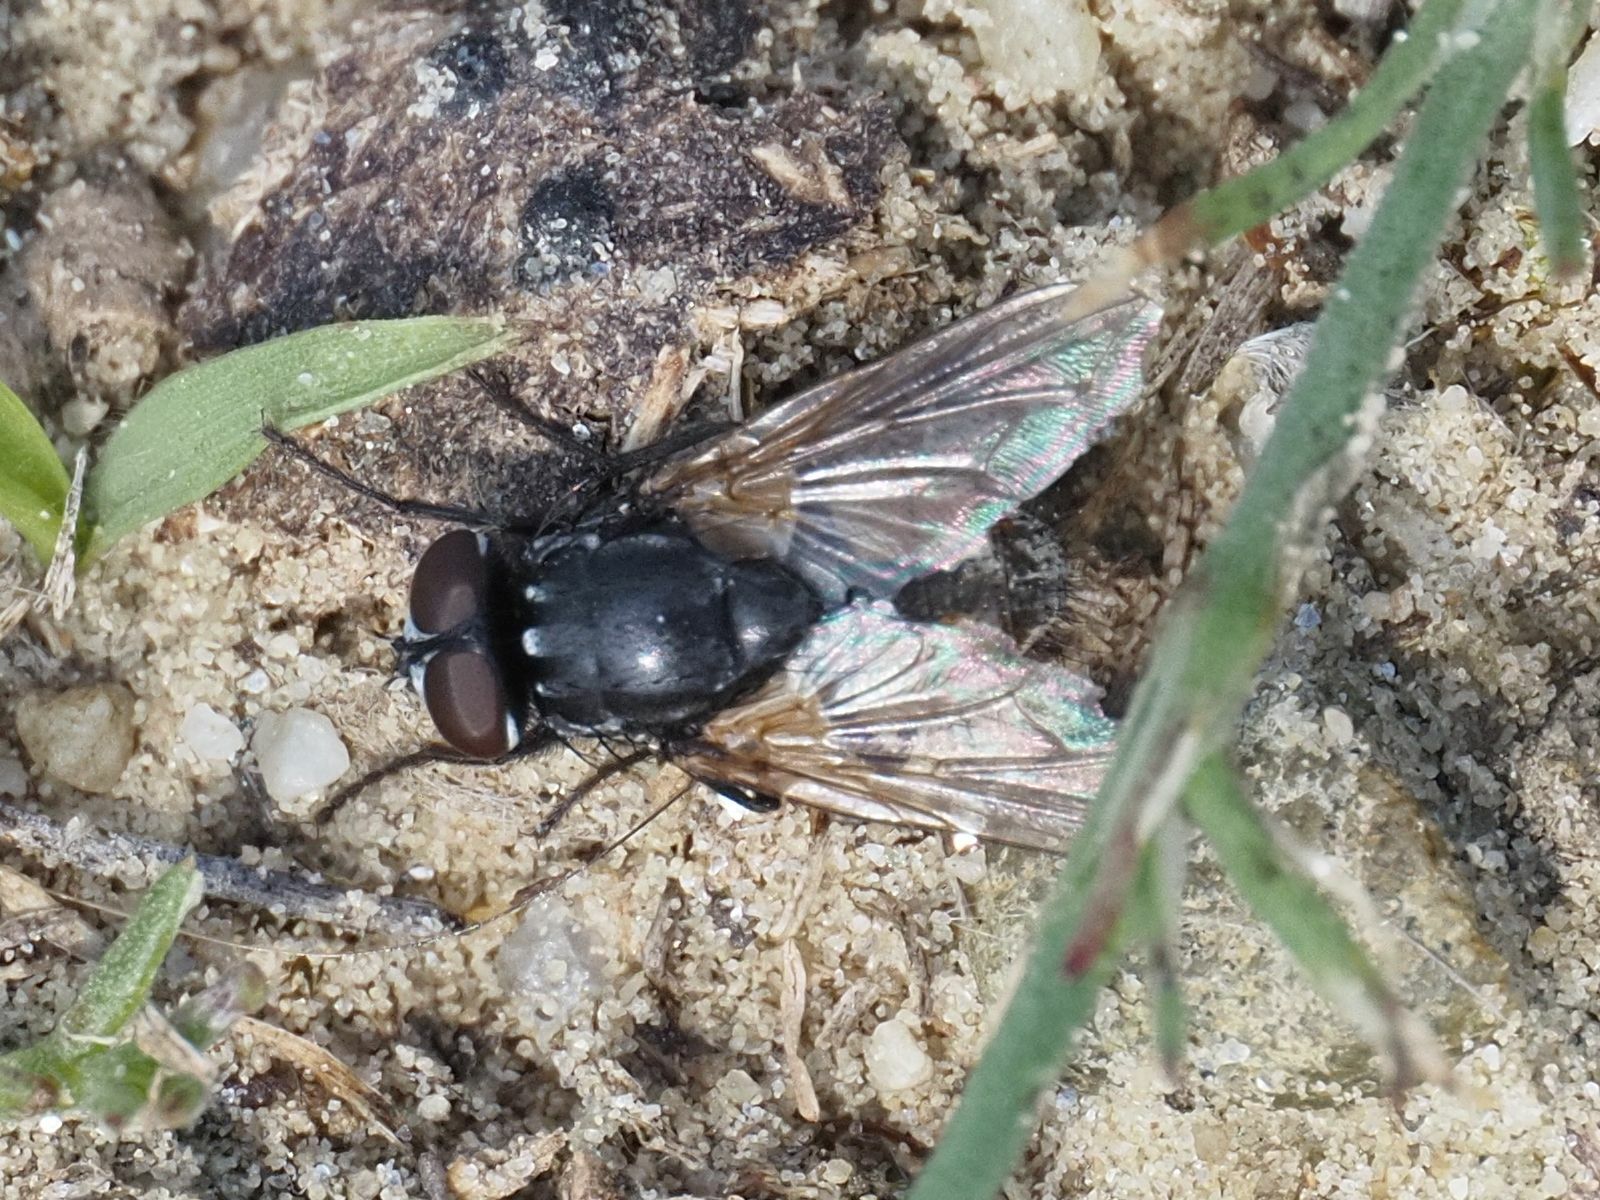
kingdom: Animalia
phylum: Arthropoda
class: Insecta
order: Diptera
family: Muscidae
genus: Musca
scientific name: Musca autumnalis
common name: Face fly
